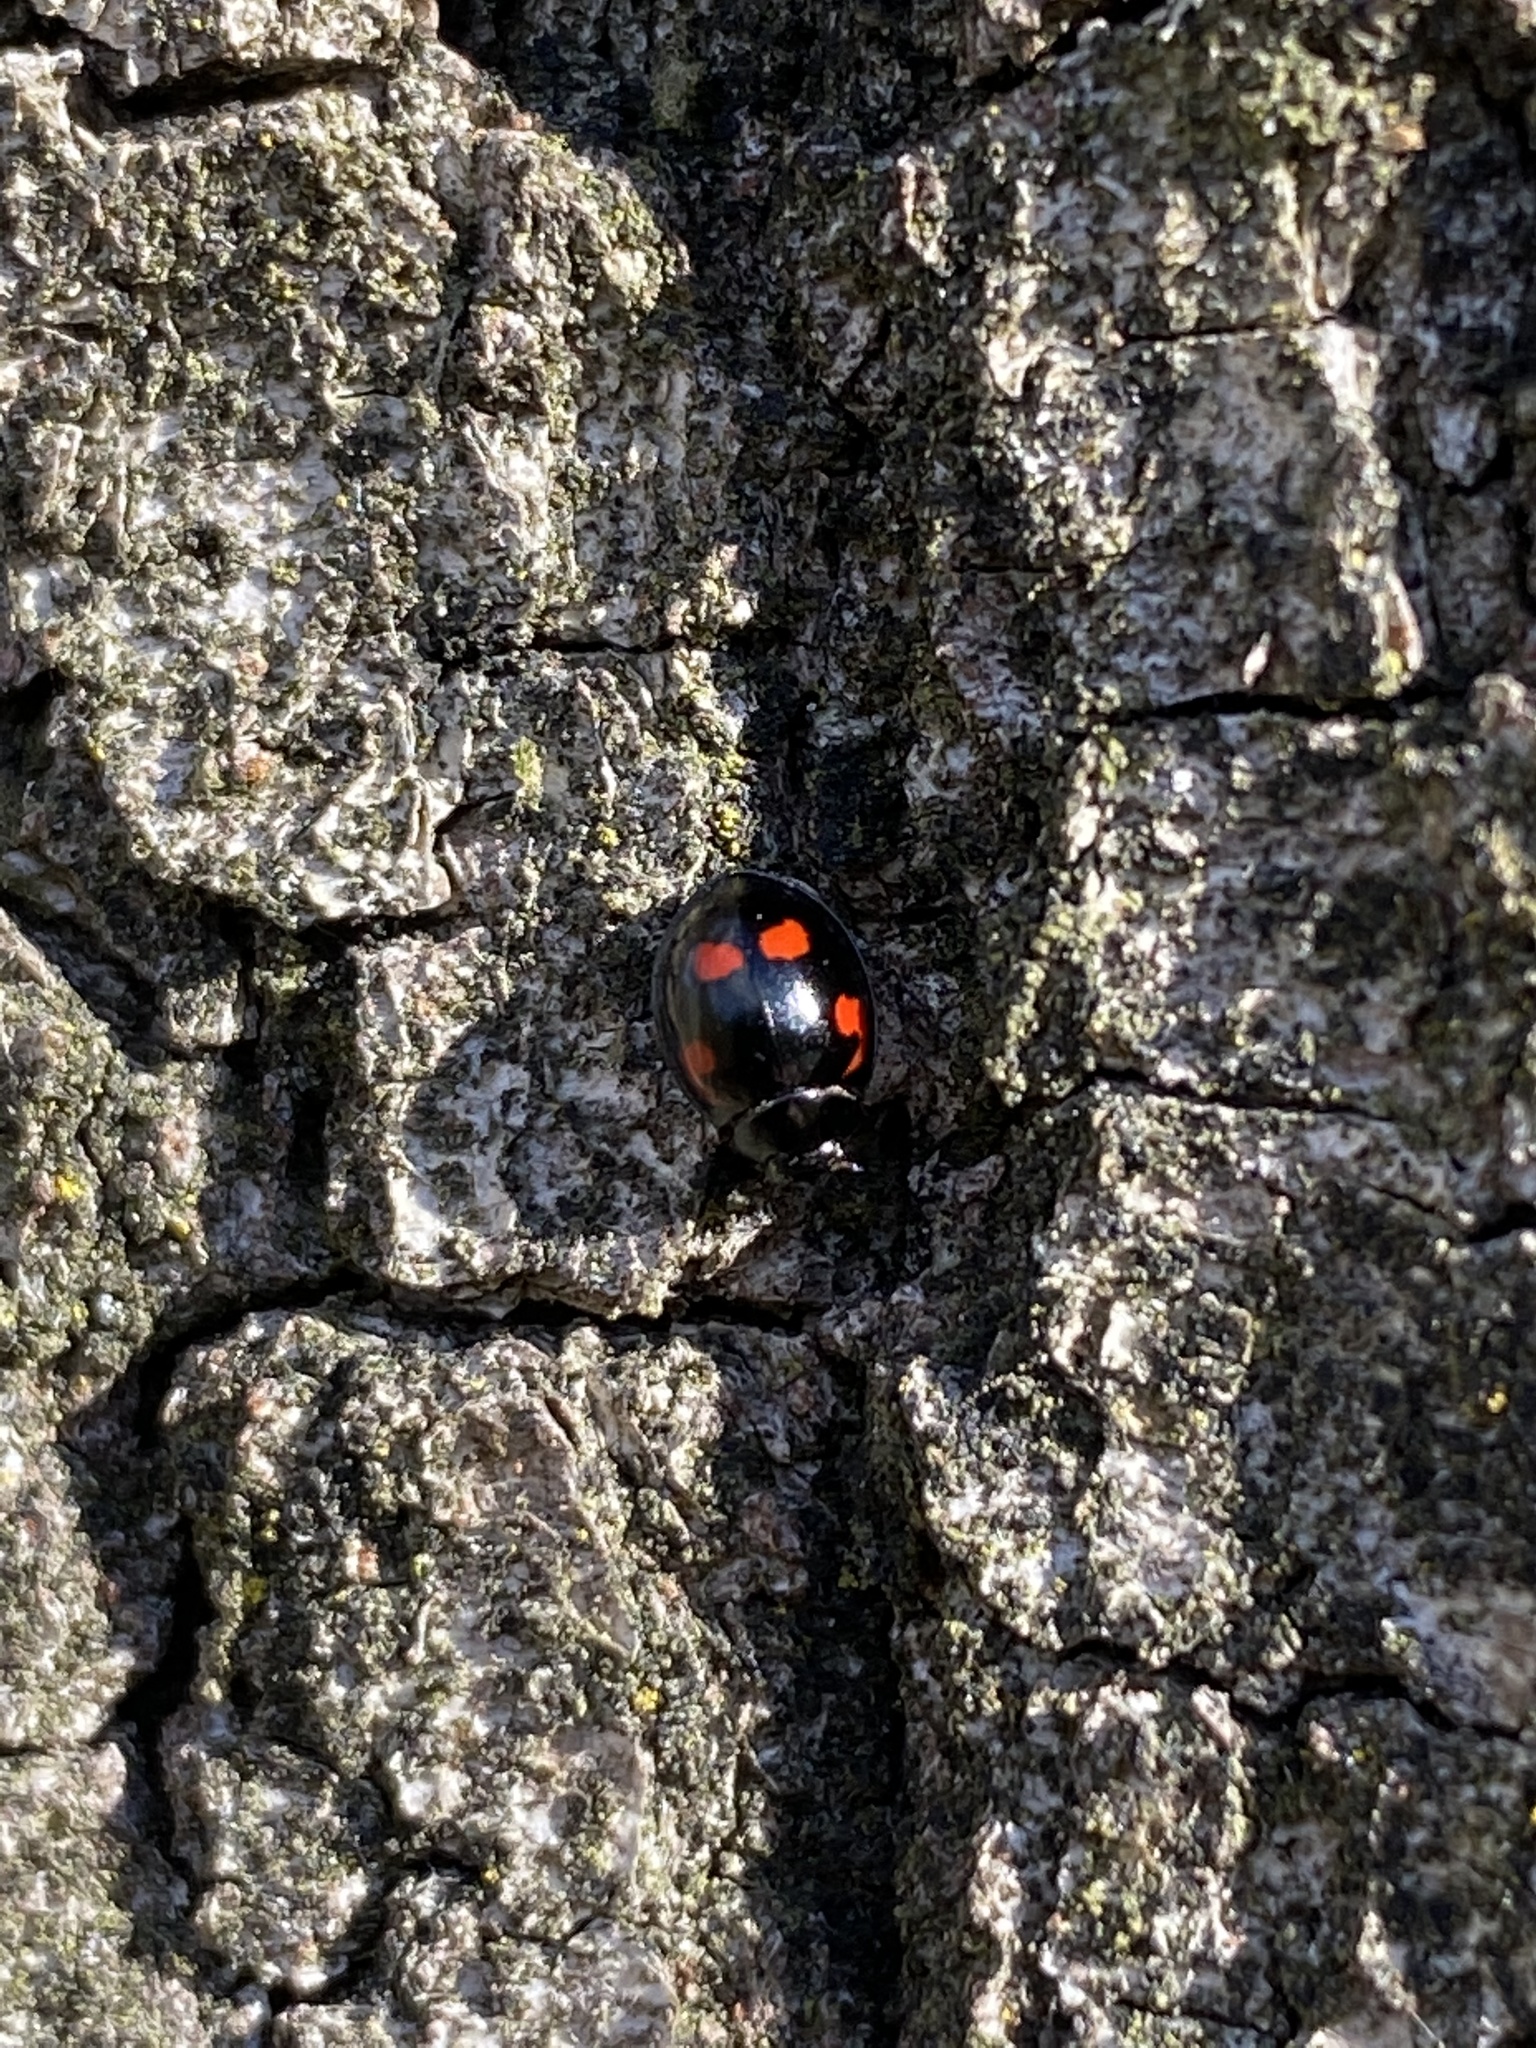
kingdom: Animalia
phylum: Arthropoda
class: Insecta
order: Coleoptera
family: Coccinellidae
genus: Brumus
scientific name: Brumus quadripustulatus
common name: Ladybird beetle
